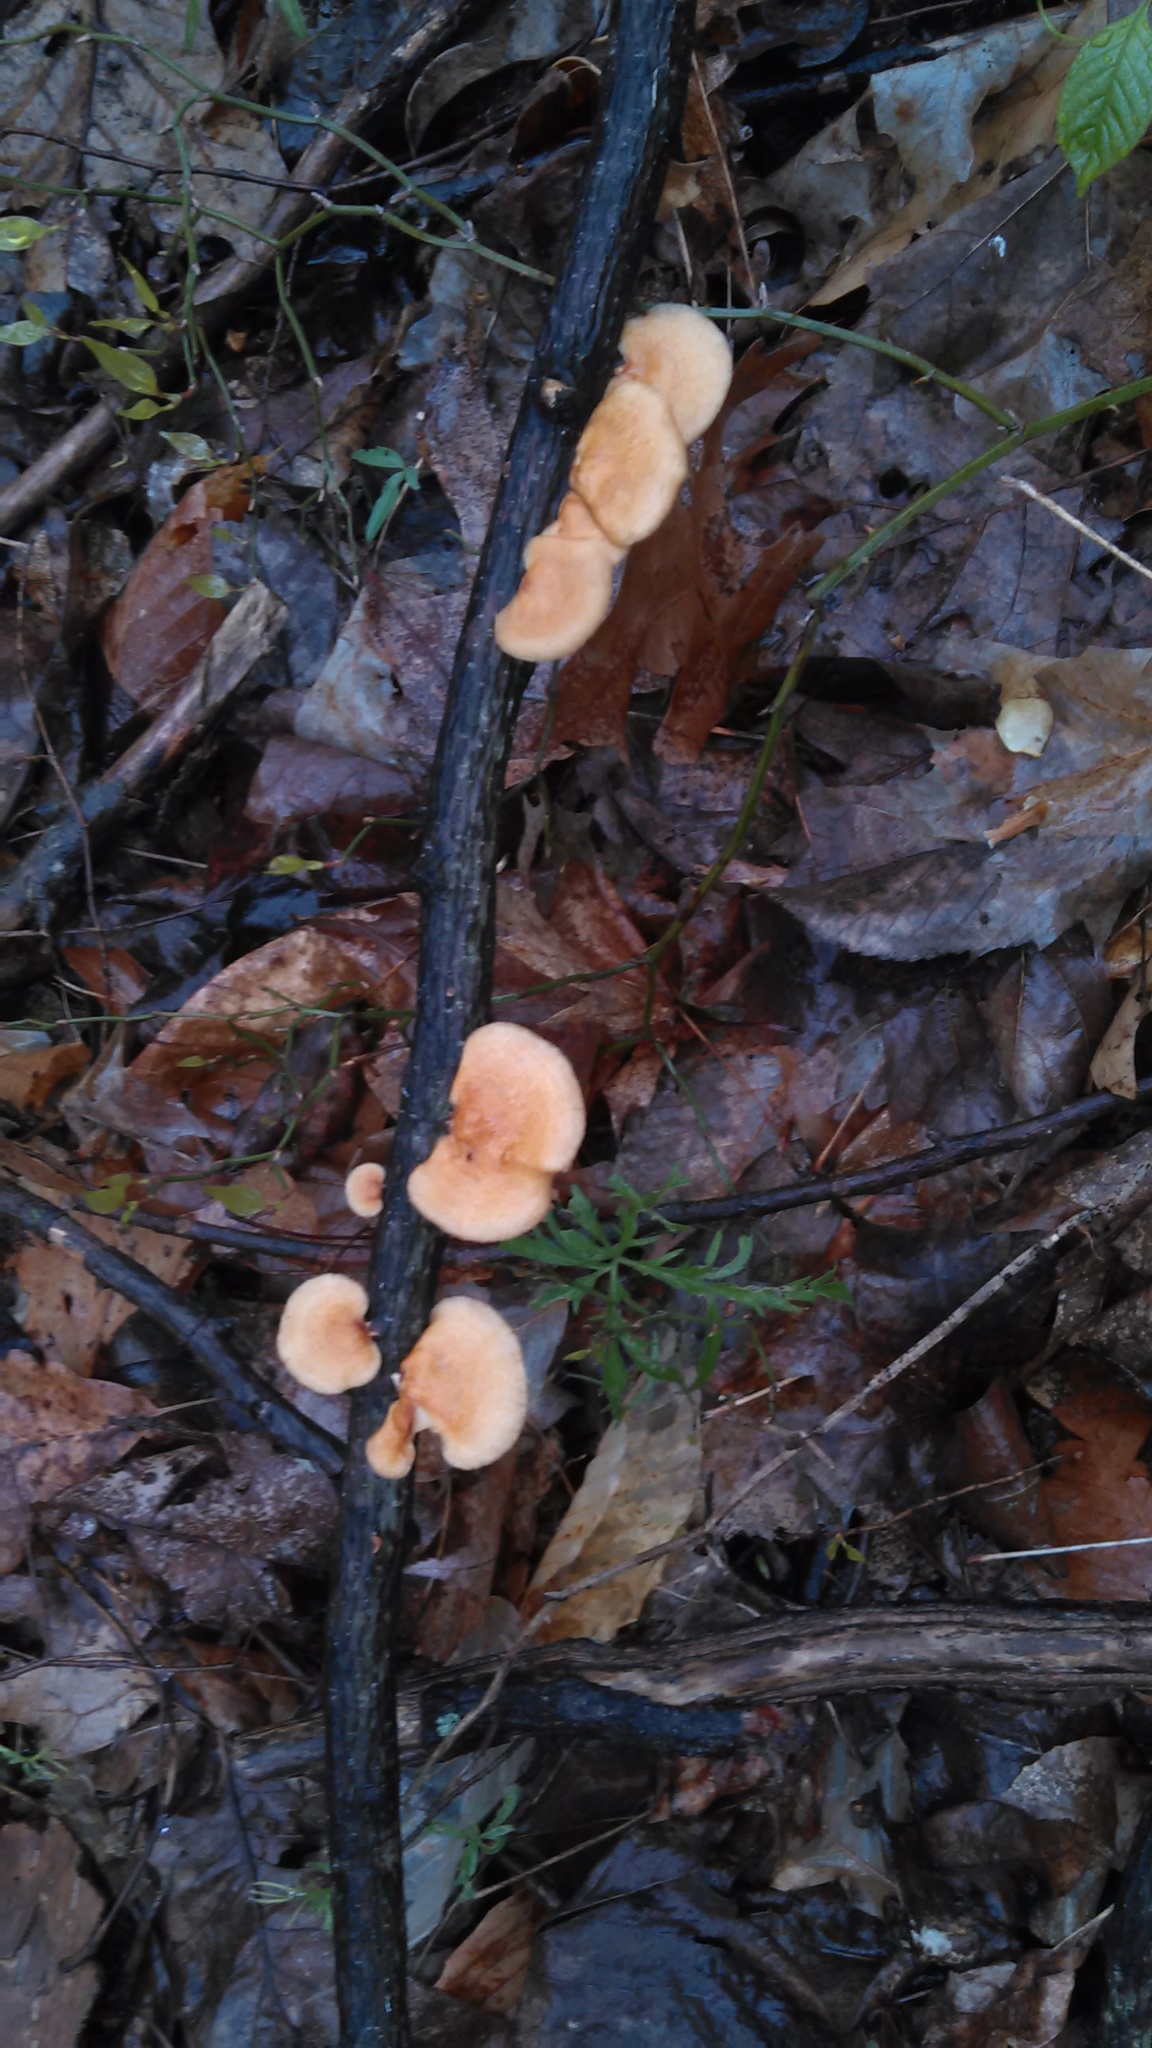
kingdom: Fungi
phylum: Basidiomycota
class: Agaricomycetes
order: Polyporales
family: Polyporaceae
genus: Neofavolus
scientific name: Neofavolus alveolaris
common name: Hexagonal-pored polypore
